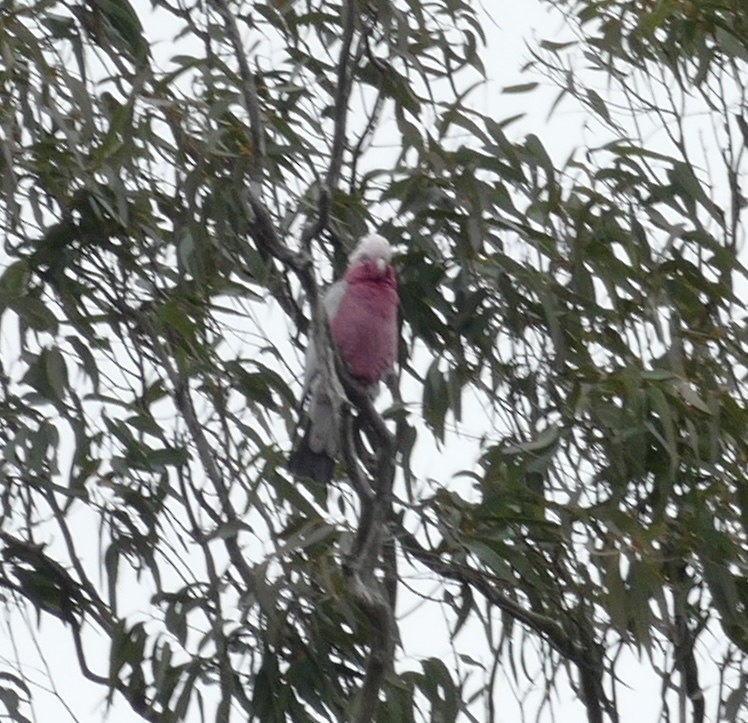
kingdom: Animalia
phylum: Chordata
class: Aves
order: Psittaciformes
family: Psittacidae
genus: Eolophus
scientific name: Eolophus roseicapilla
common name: Galah
